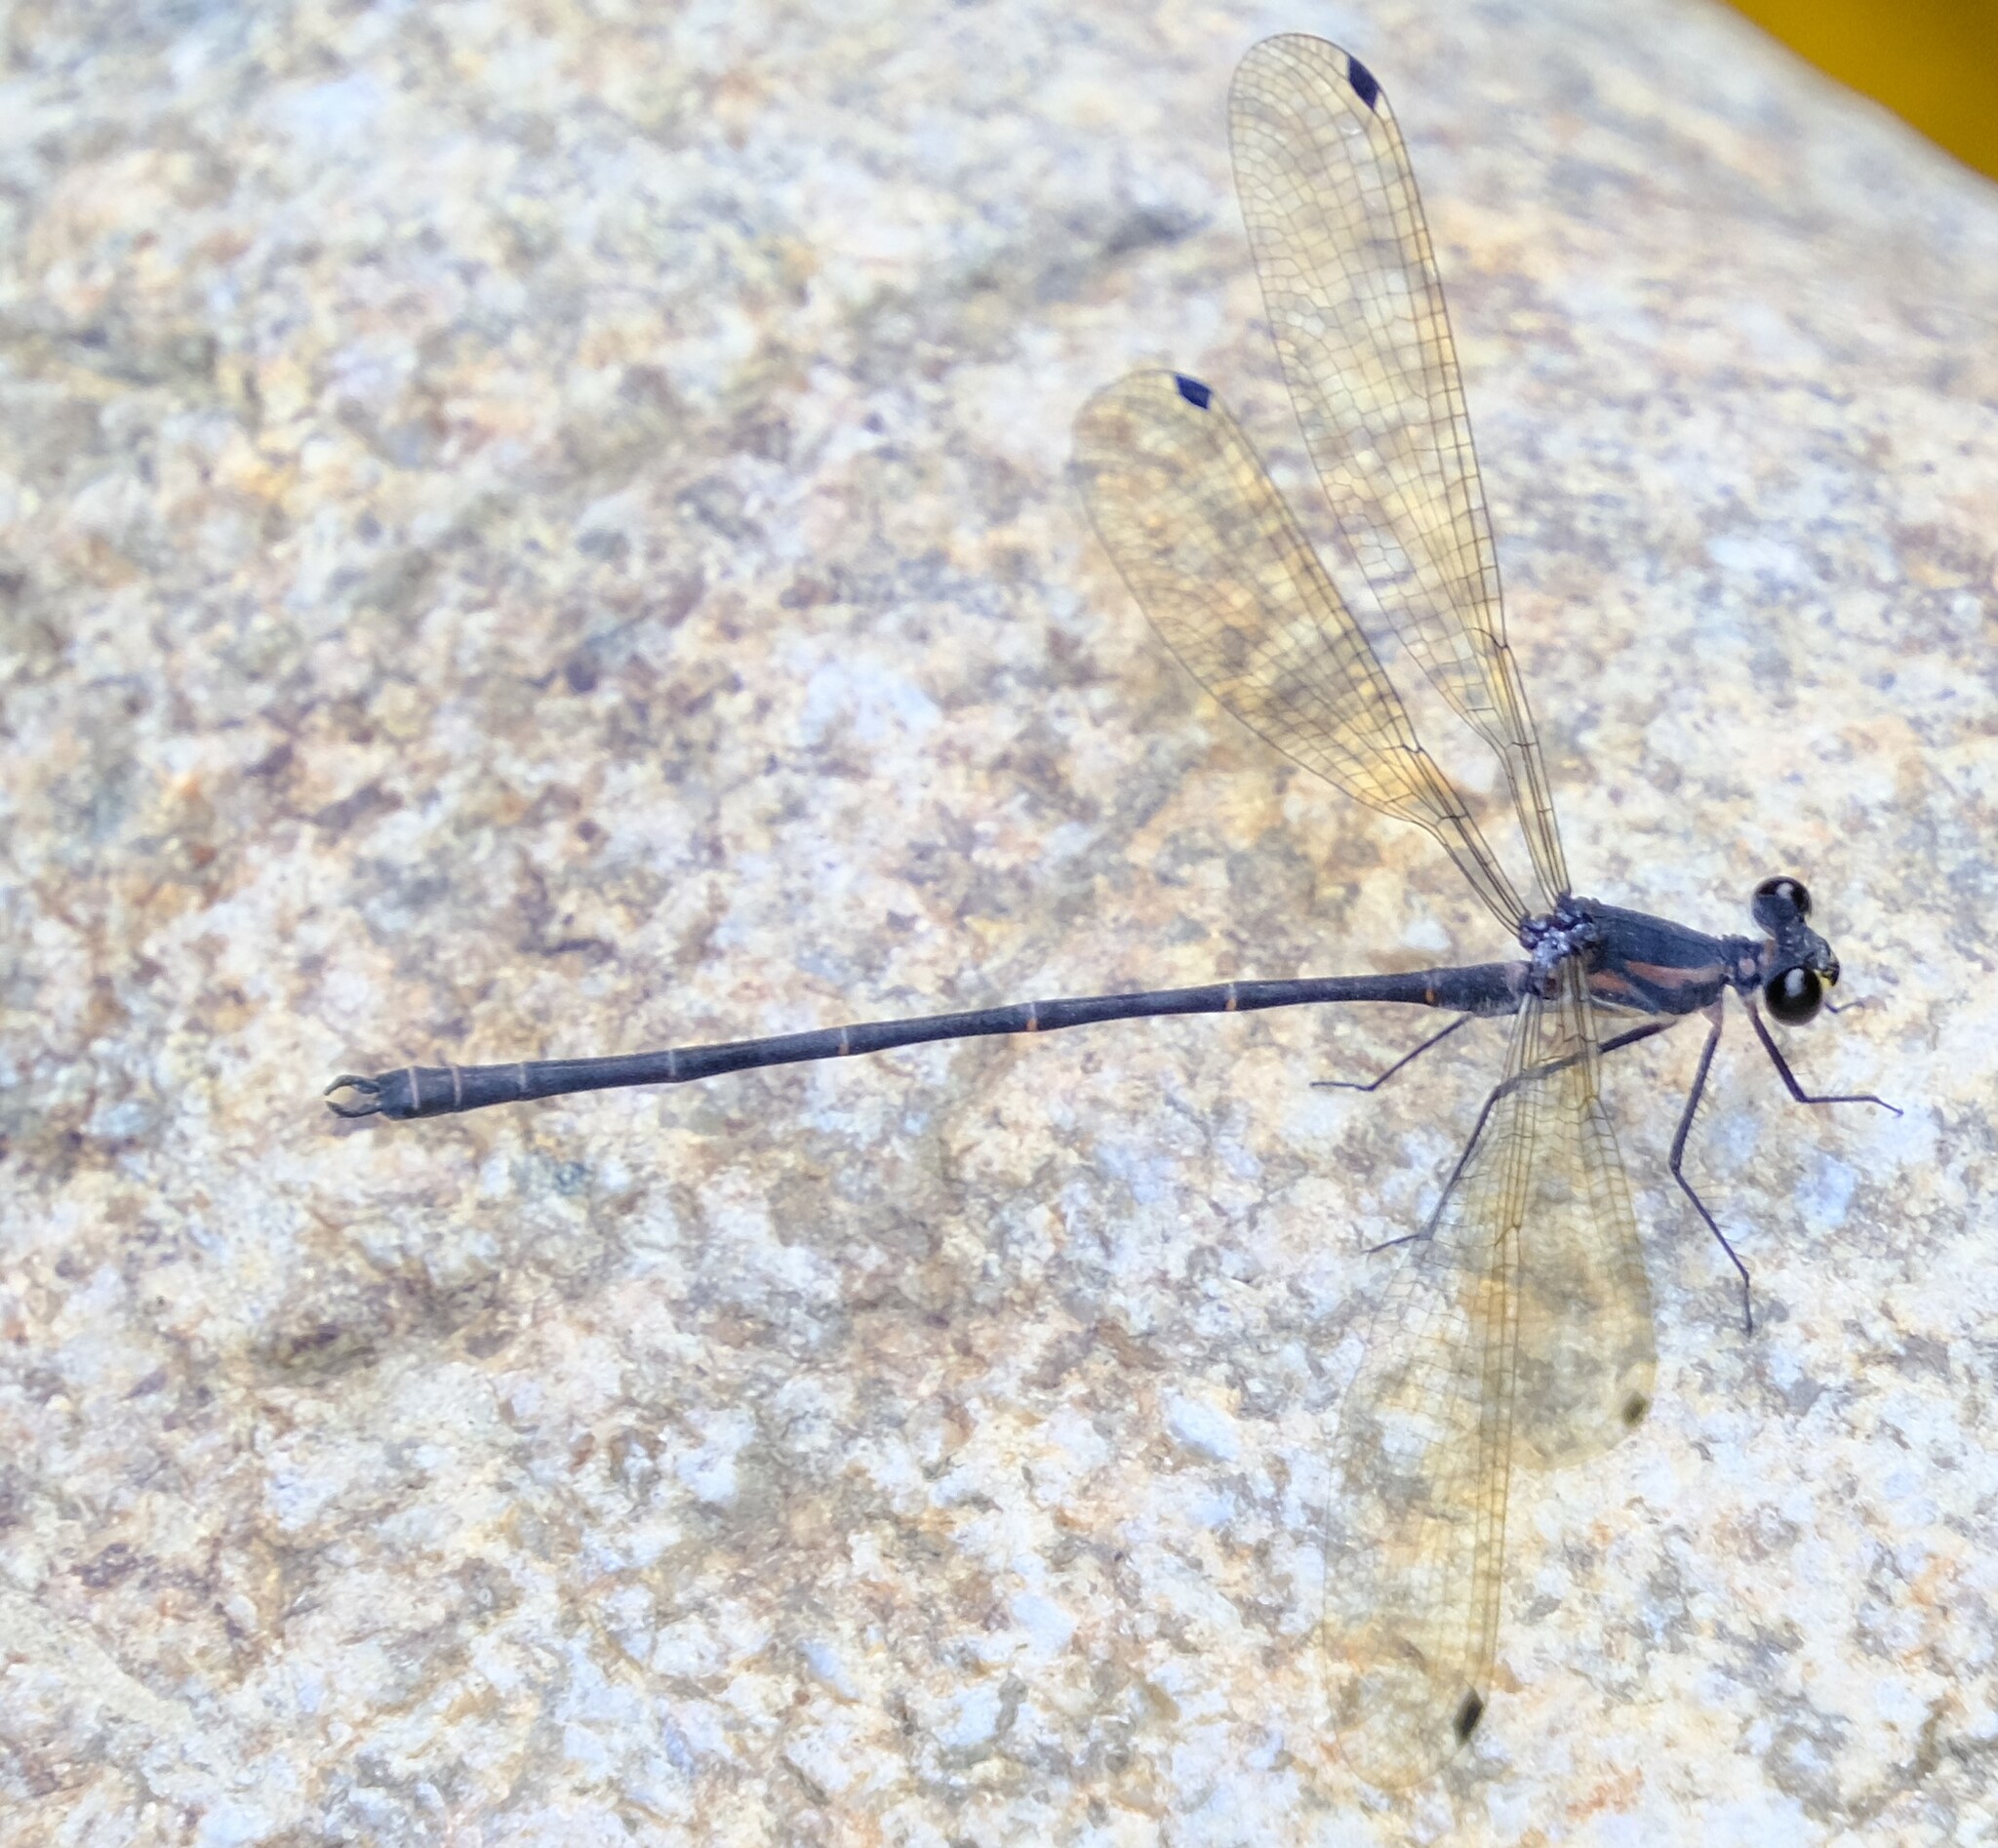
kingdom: Animalia
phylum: Arthropoda
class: Insecta
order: Odonata
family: Argiolestidae
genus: Austroargiolestes
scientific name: Austroargiolestes icteromelas
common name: Common flatwing
